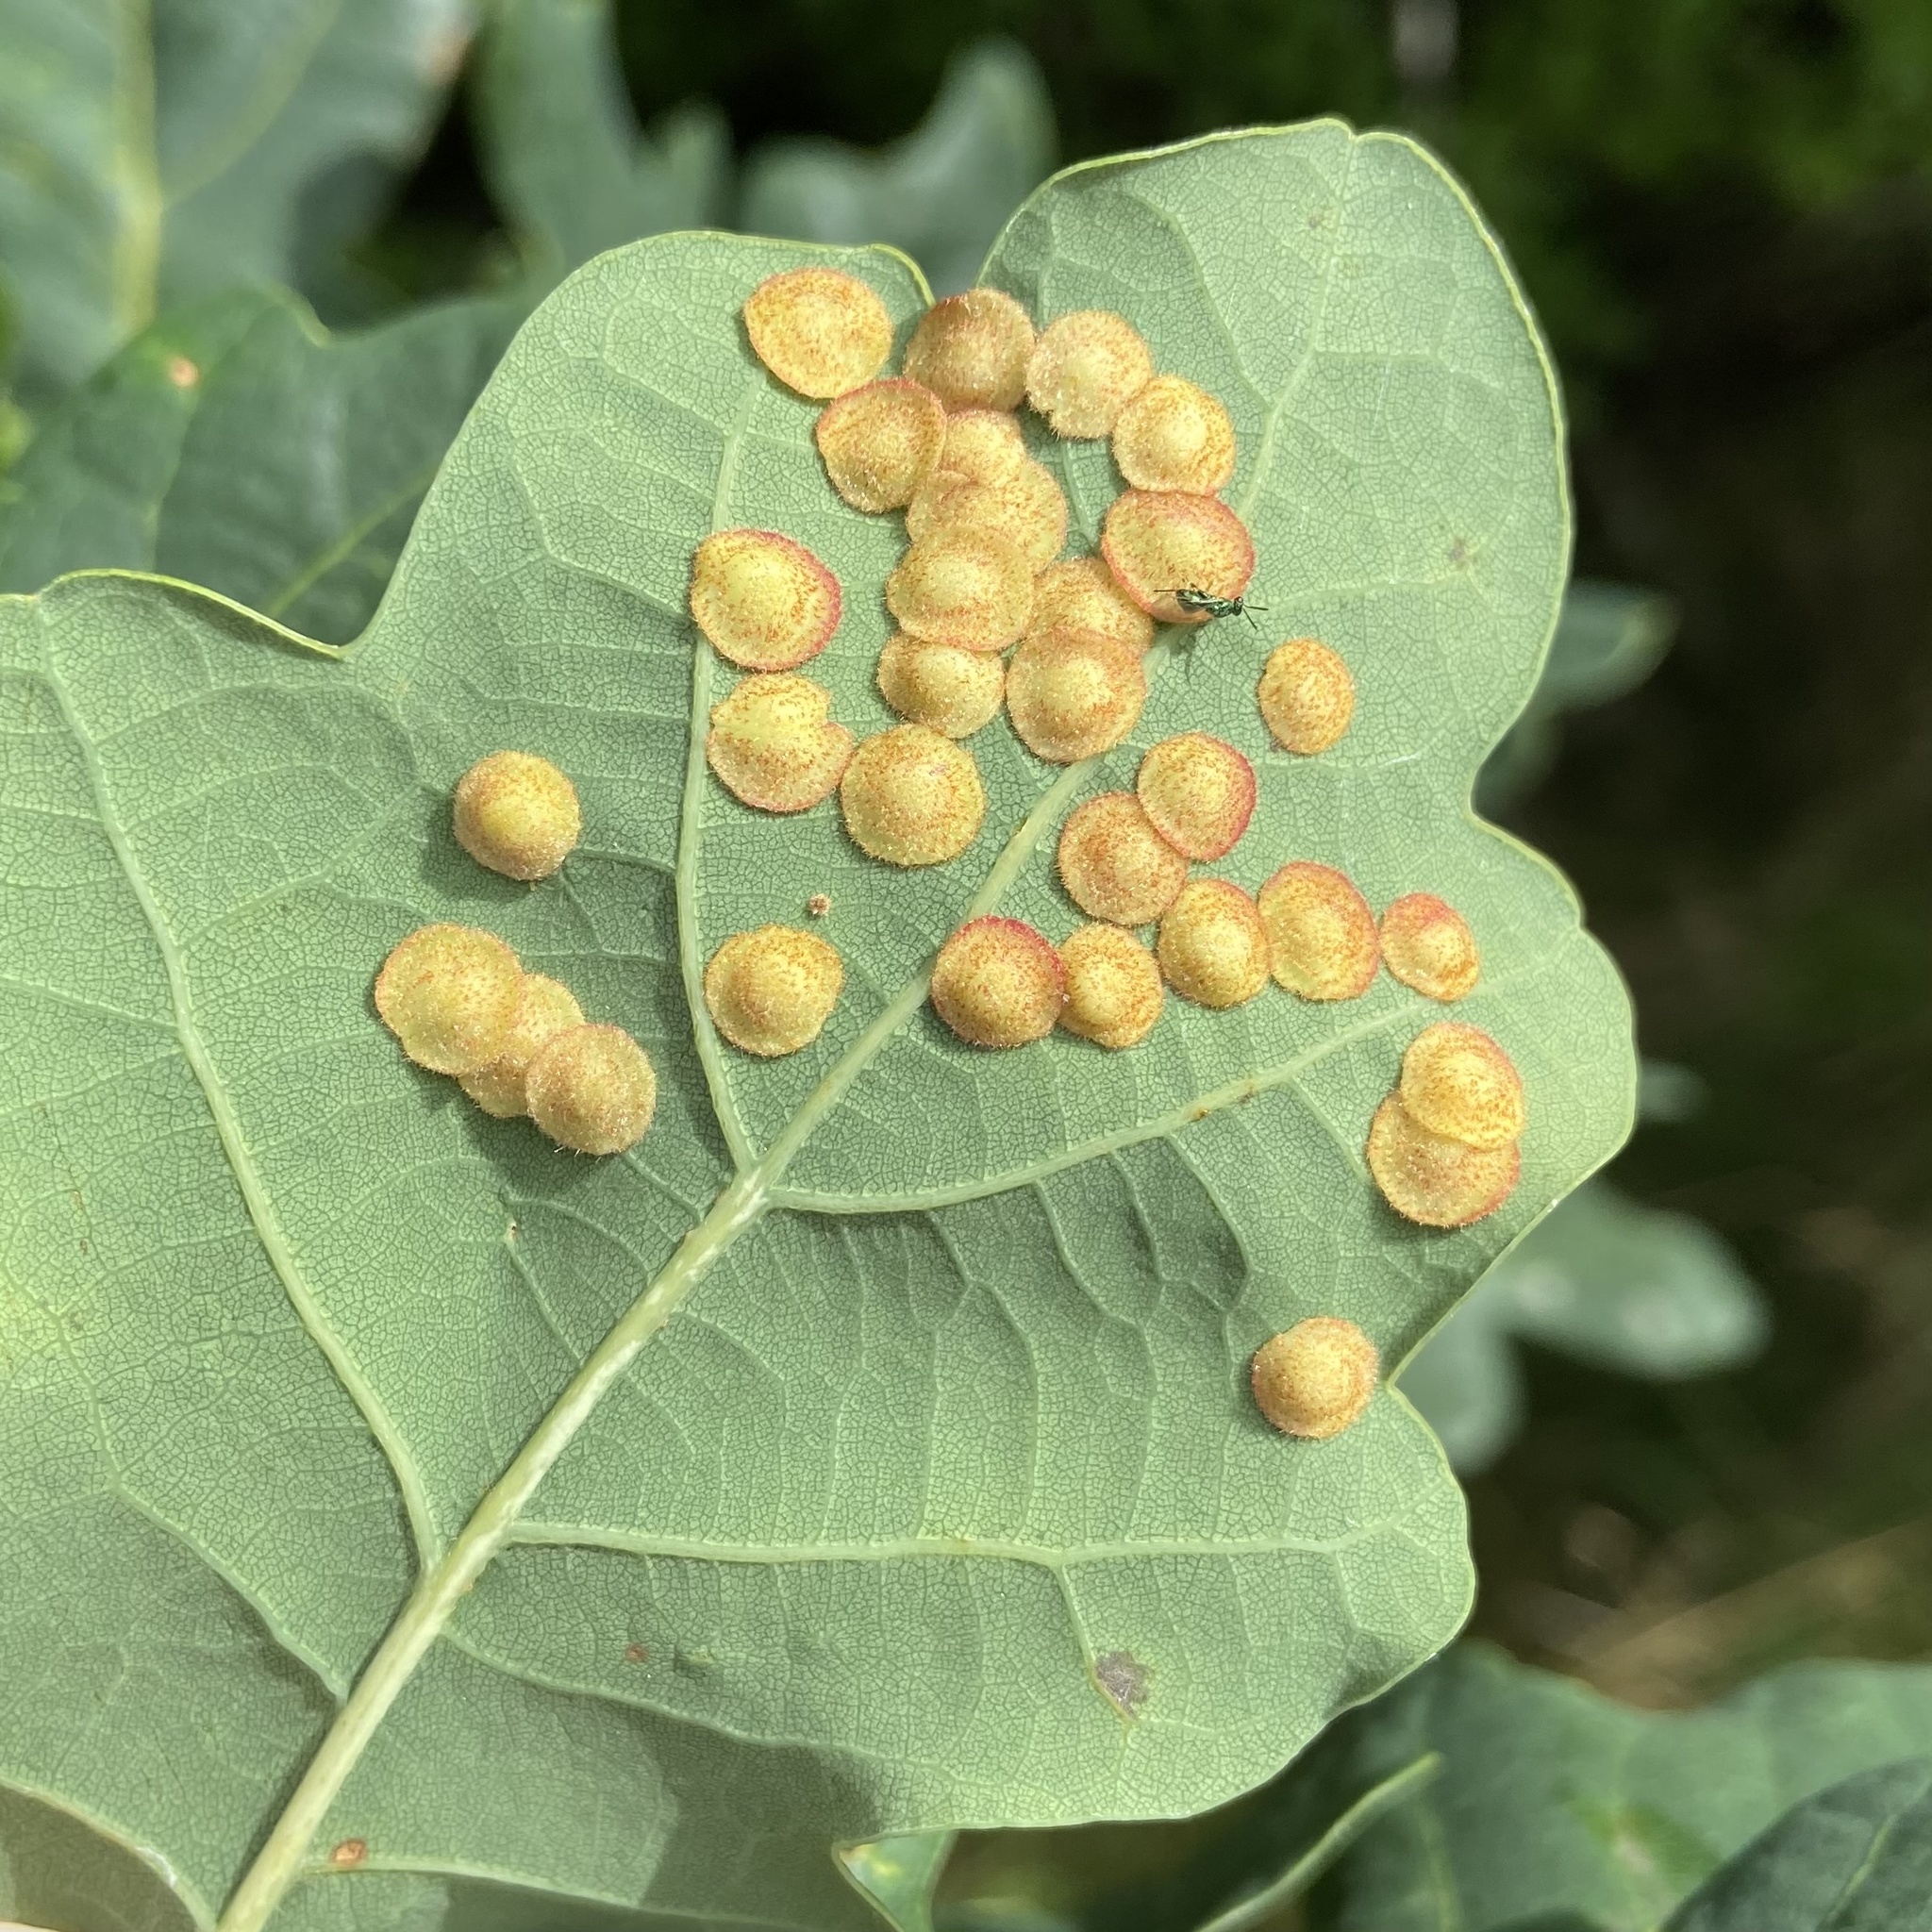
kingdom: Animalia
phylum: Arthropoda
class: Insecta
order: Hymenoptera
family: Cynipidae
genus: Neuroterus
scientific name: Neuroterus quercusbaccarum
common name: Common spangle gall
